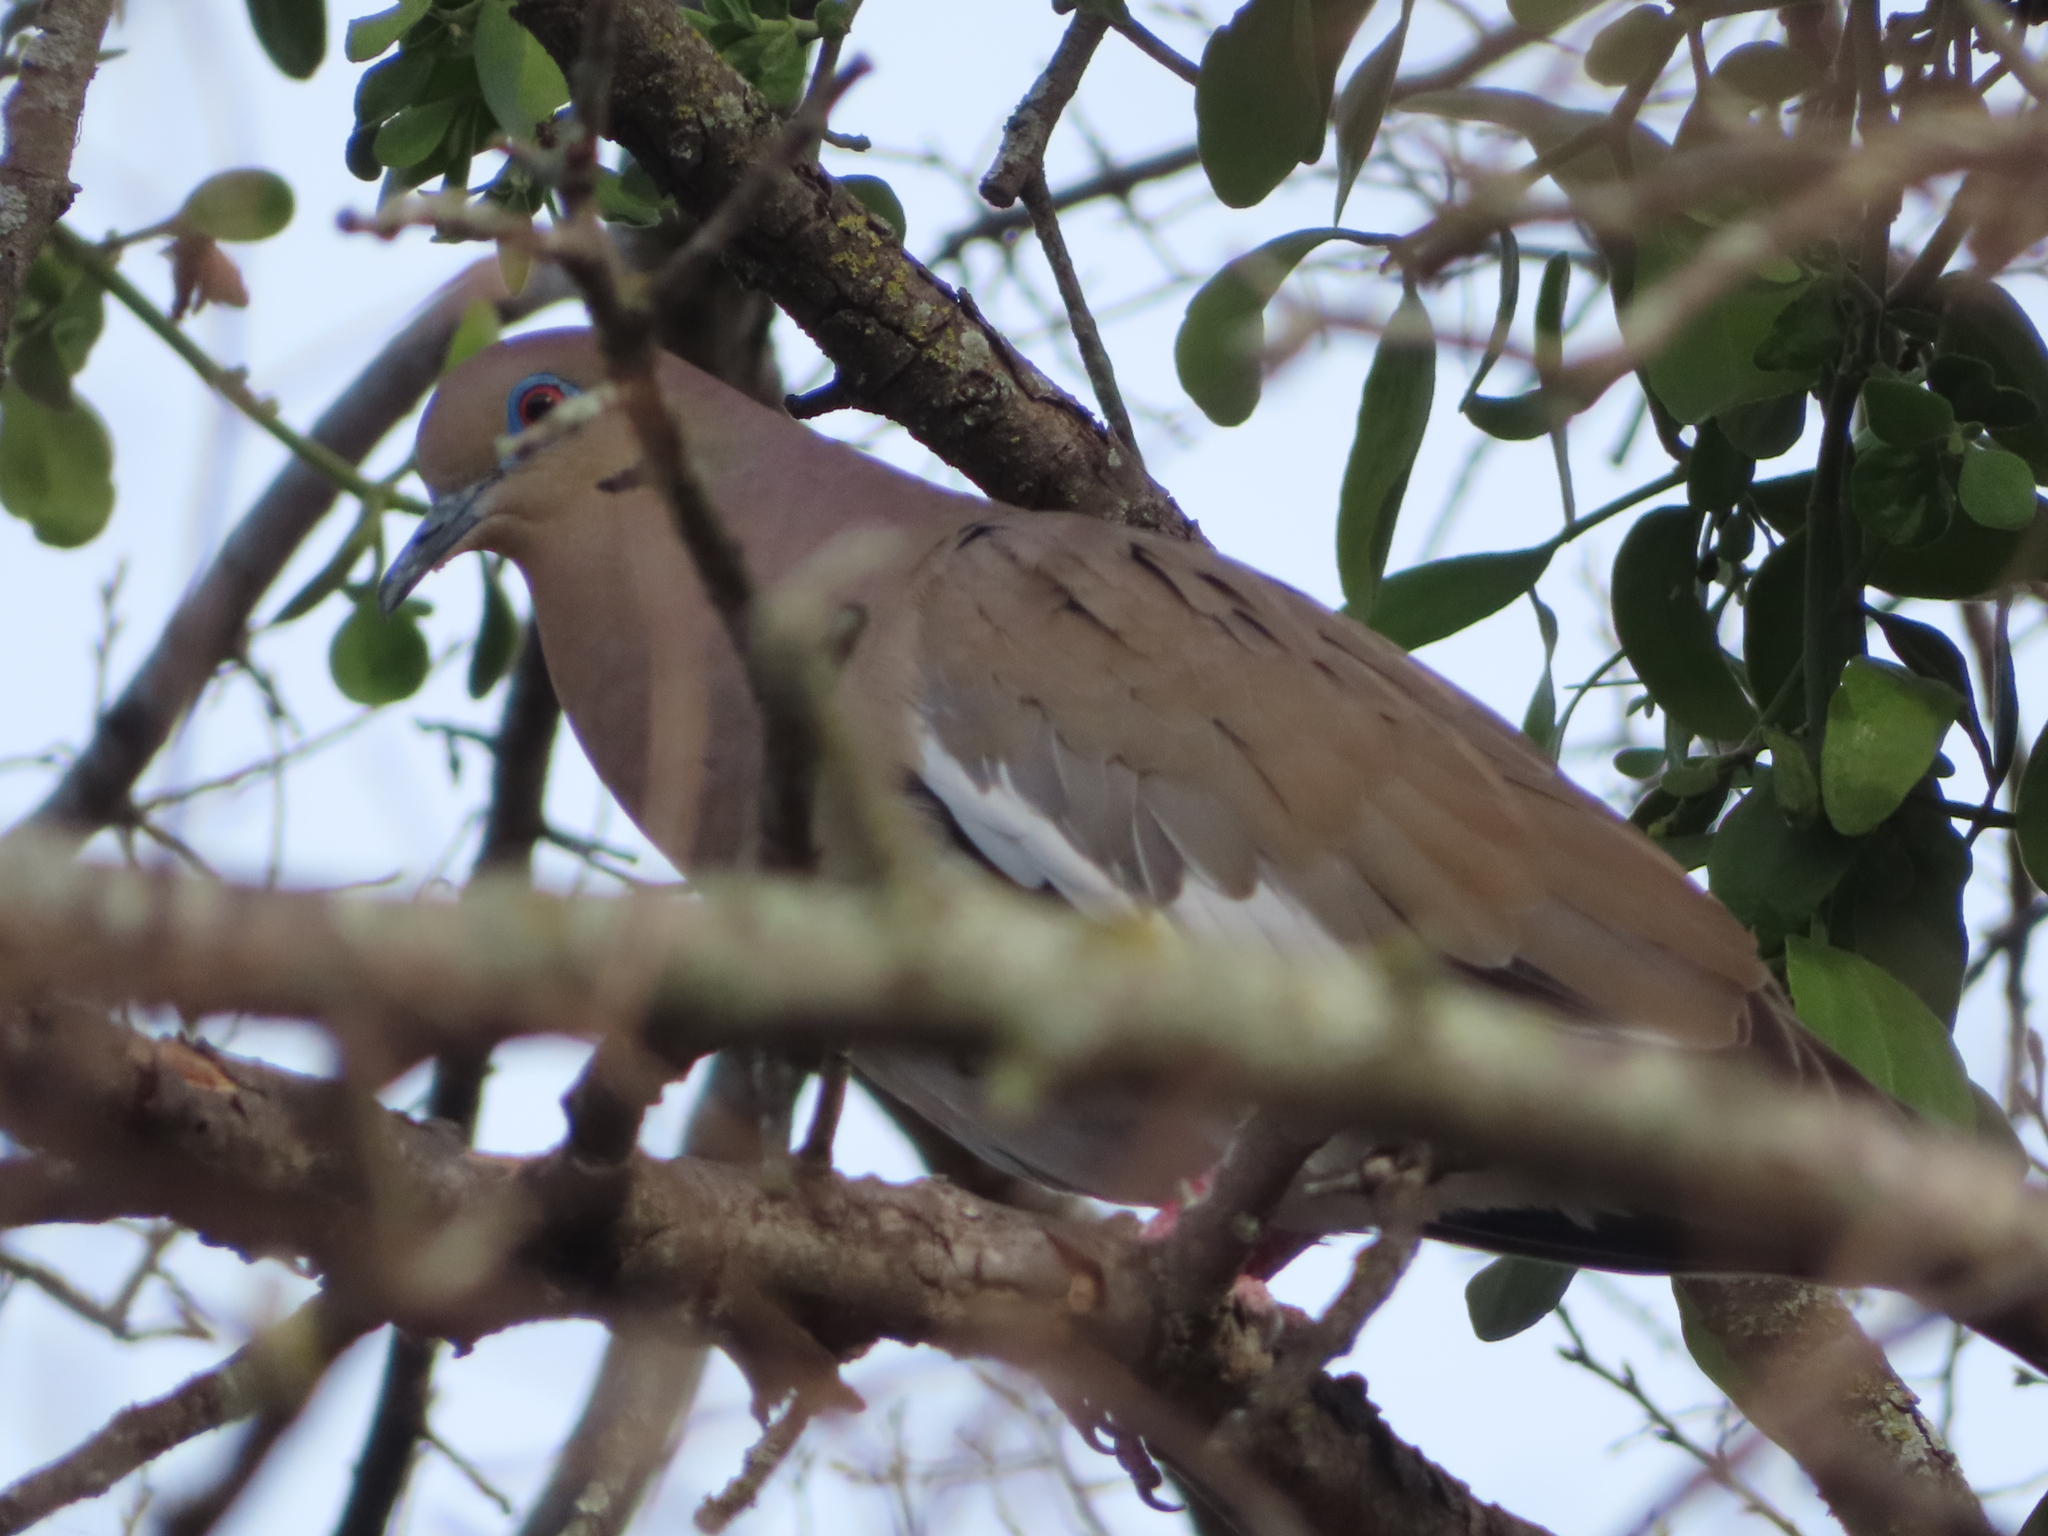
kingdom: Animalia
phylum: Chordata
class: Aves
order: Columbiformes
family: Columbidae
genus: Zenaida
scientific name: Zenaida asiatica
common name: White-winged dove
